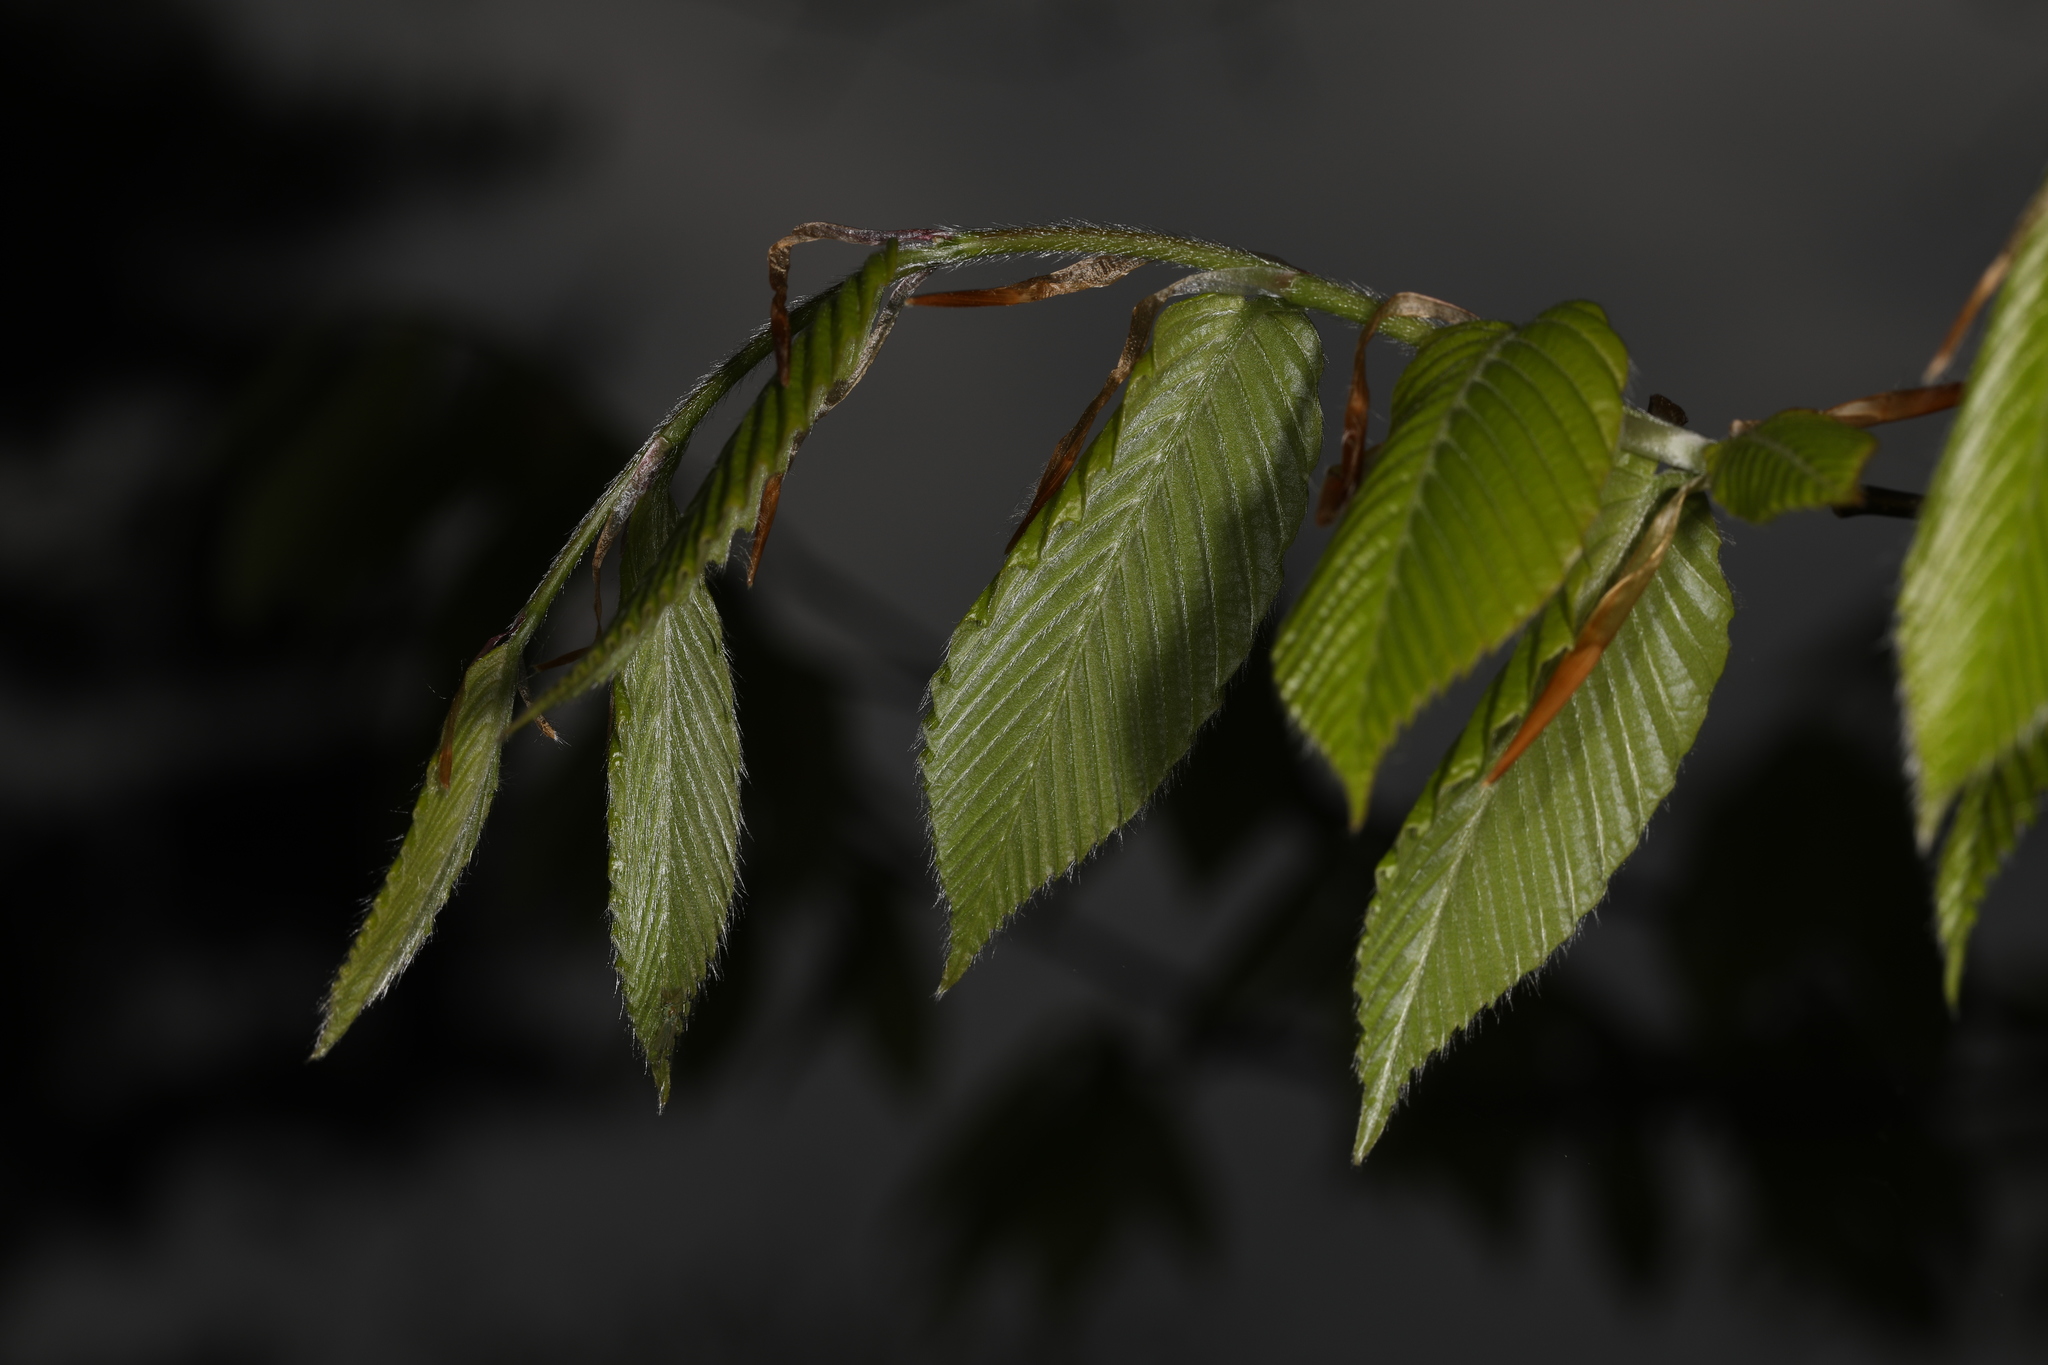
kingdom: Plantae
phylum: Tracheophyta
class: Magnoliopsida
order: Fagales
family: Fagaceae
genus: Fagus
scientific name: Fagus grandifolia
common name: American beech
